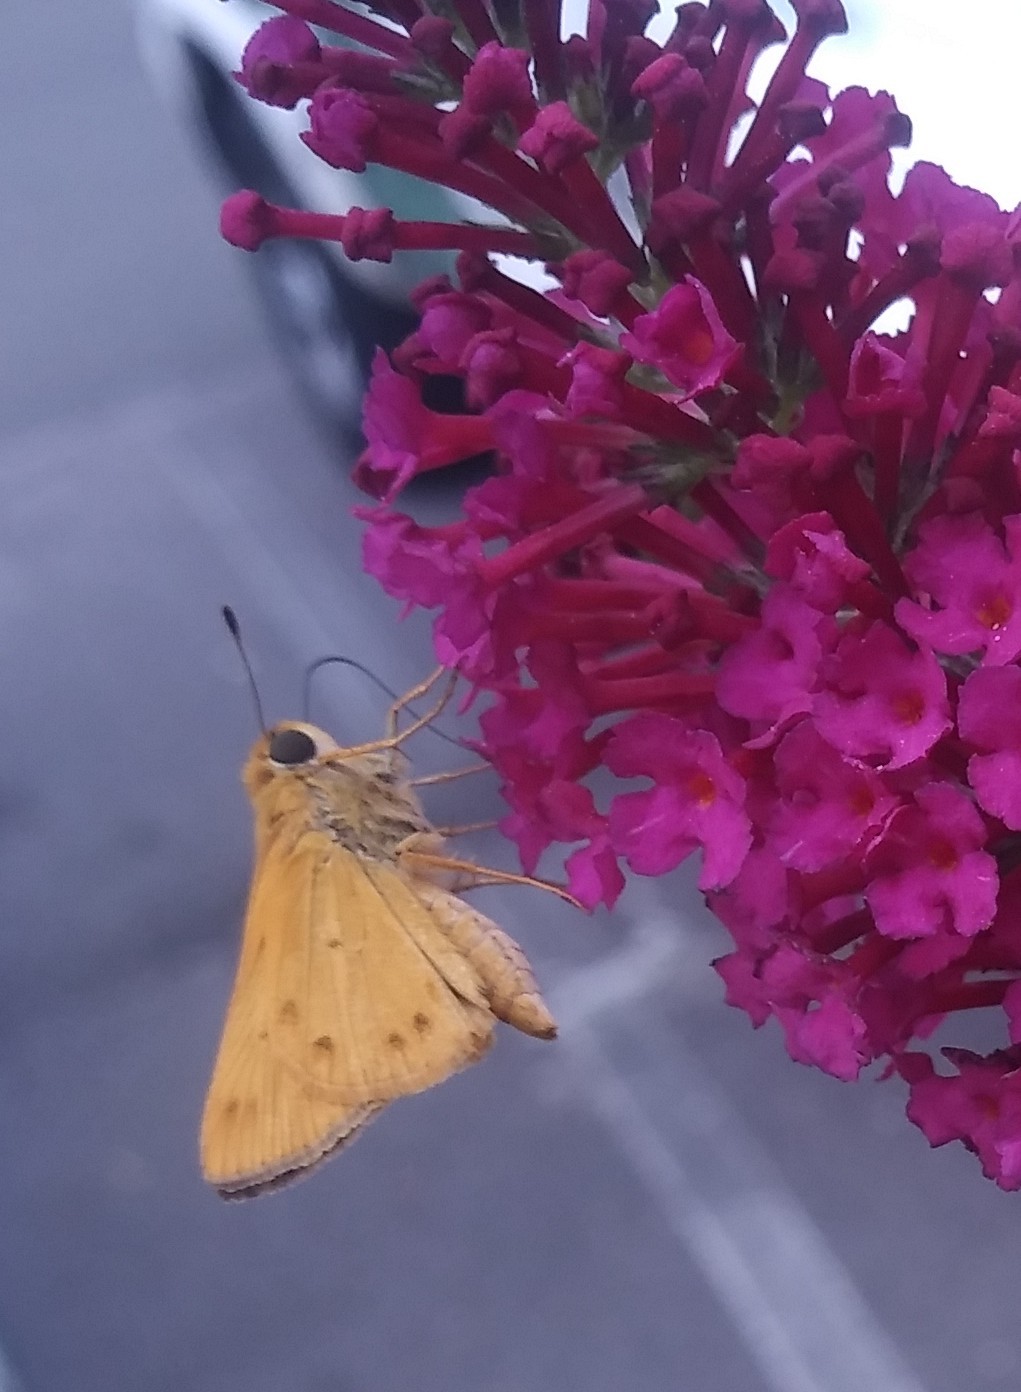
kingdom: Animalia
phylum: Arthropoda
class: Insecta
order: Lepidoptera
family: Hesperiidae
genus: Hylephila
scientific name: Hylephila phyleus
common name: Fiery skipper
